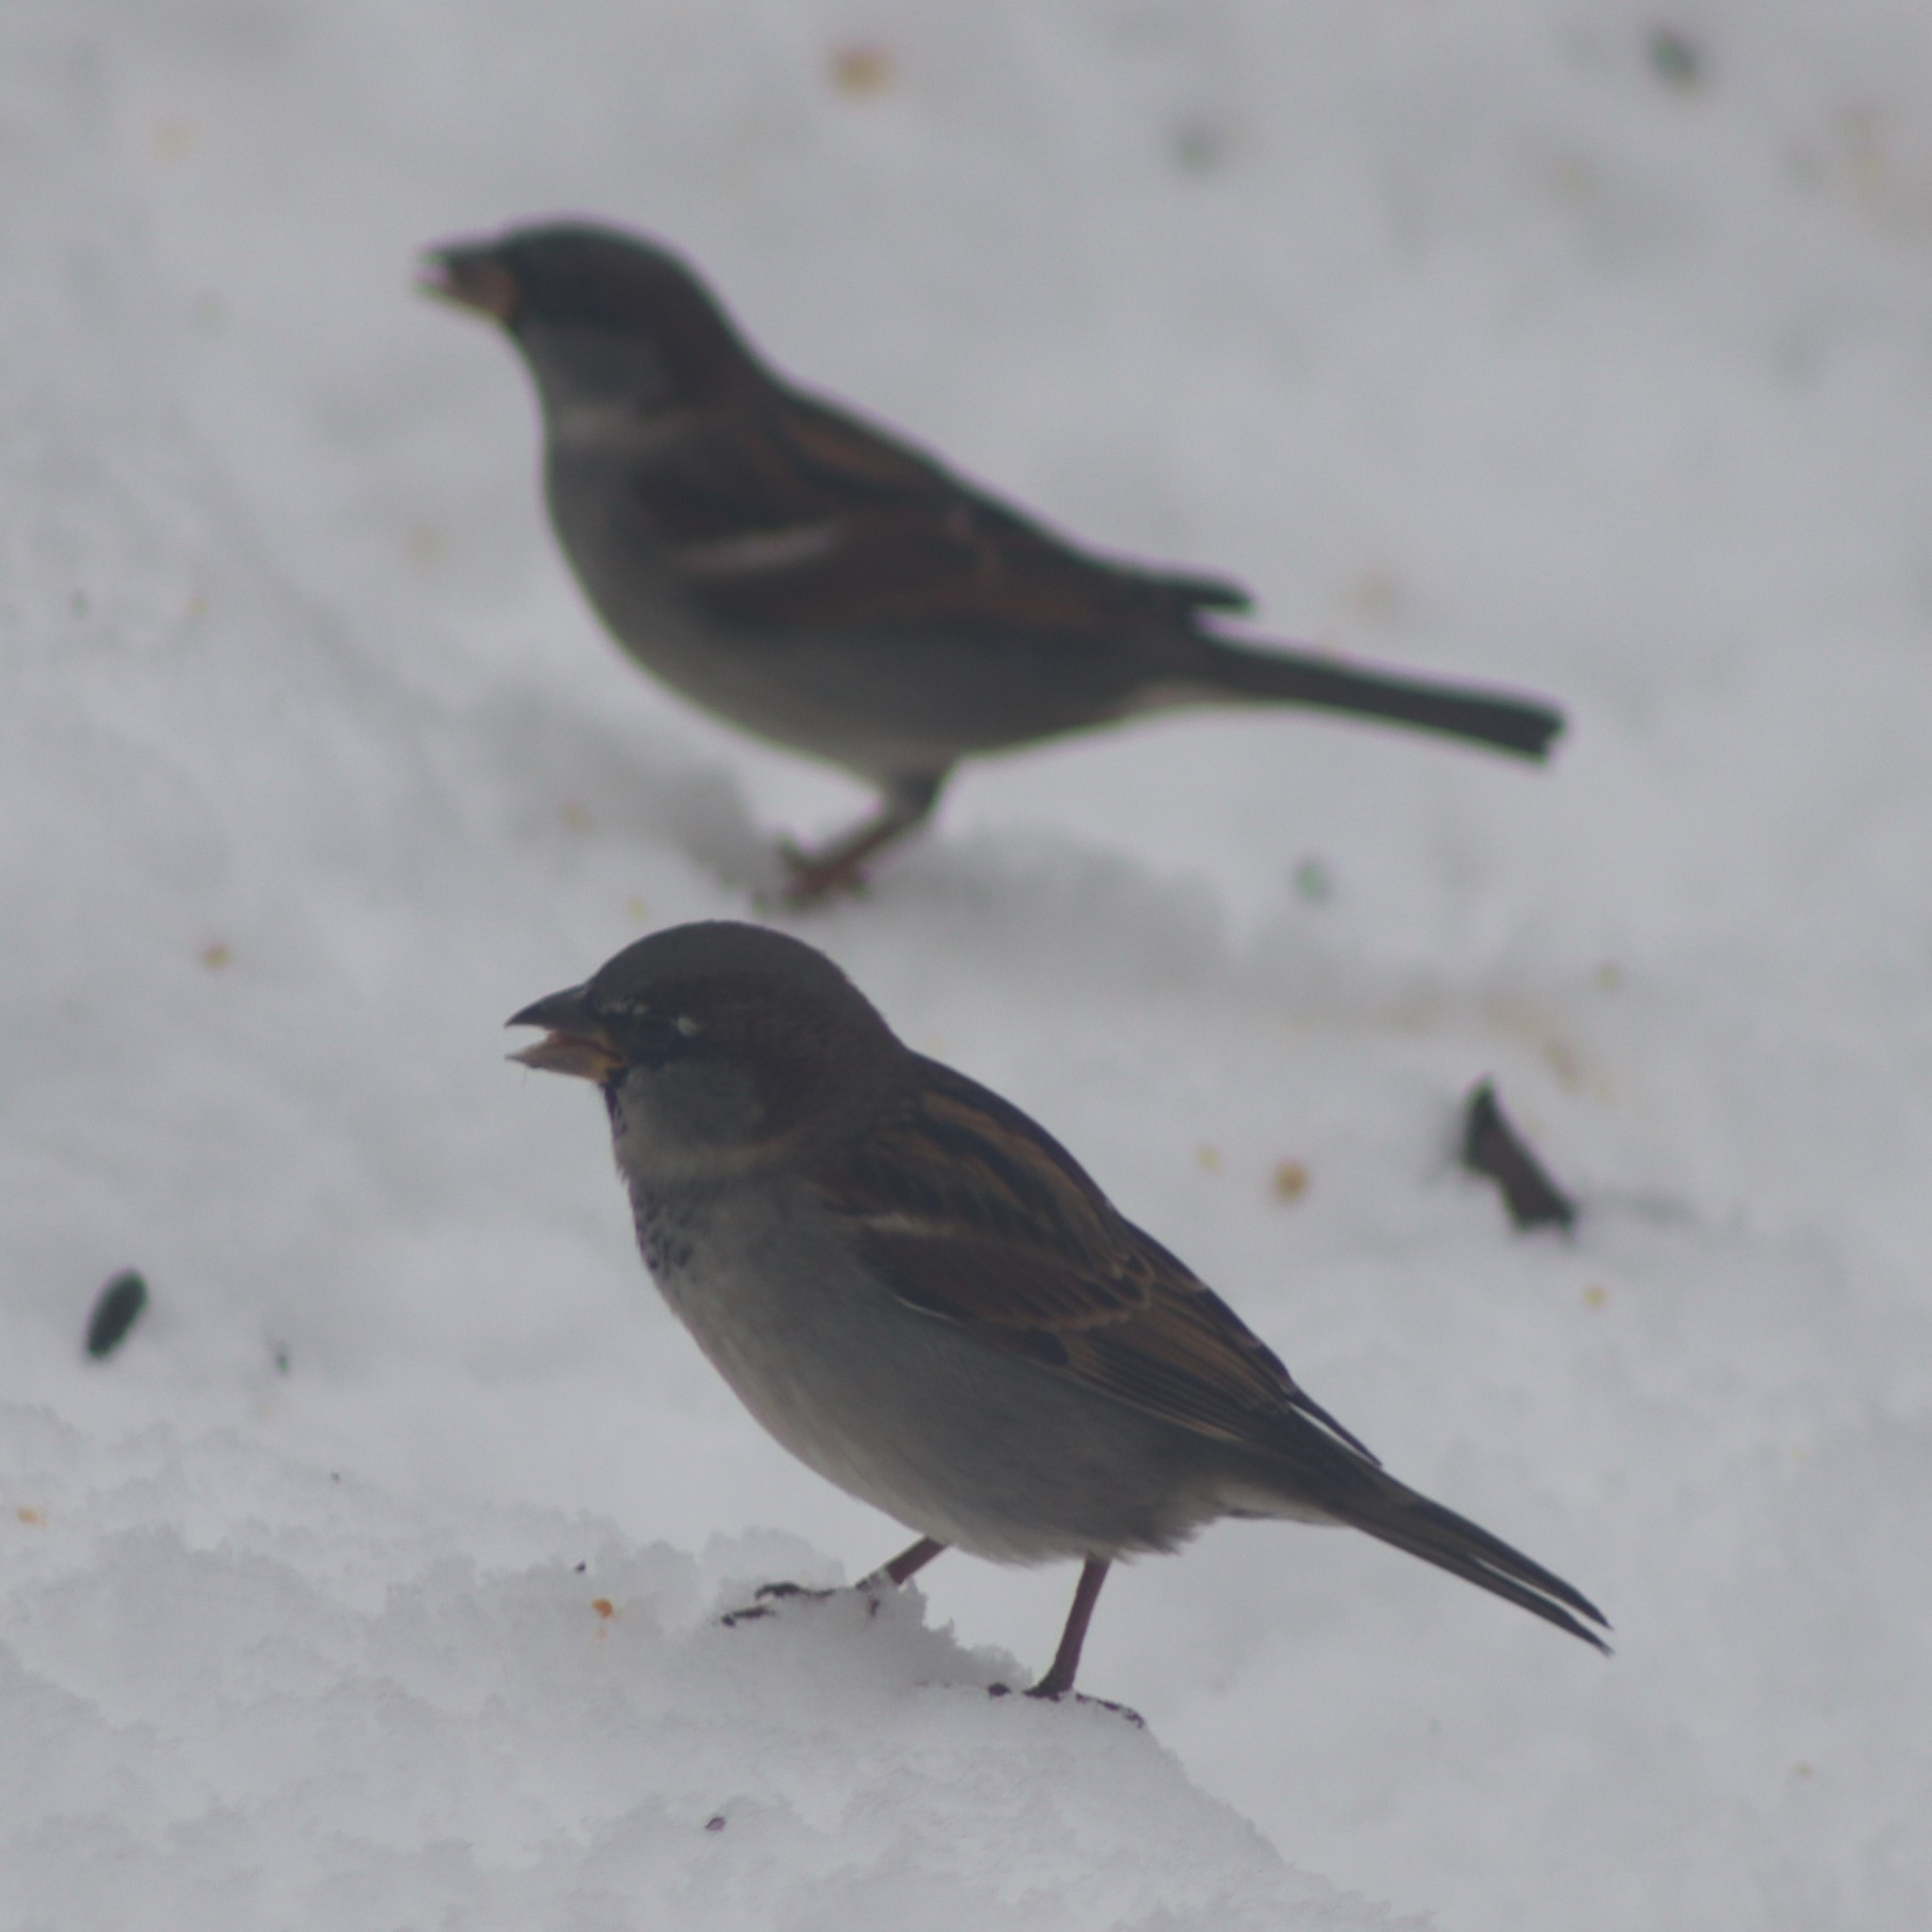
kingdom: Animalia
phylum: Chordata
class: Aves
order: Passeriformes
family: Passeridae
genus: Passer
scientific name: Passer domesticus
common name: House sparrow
